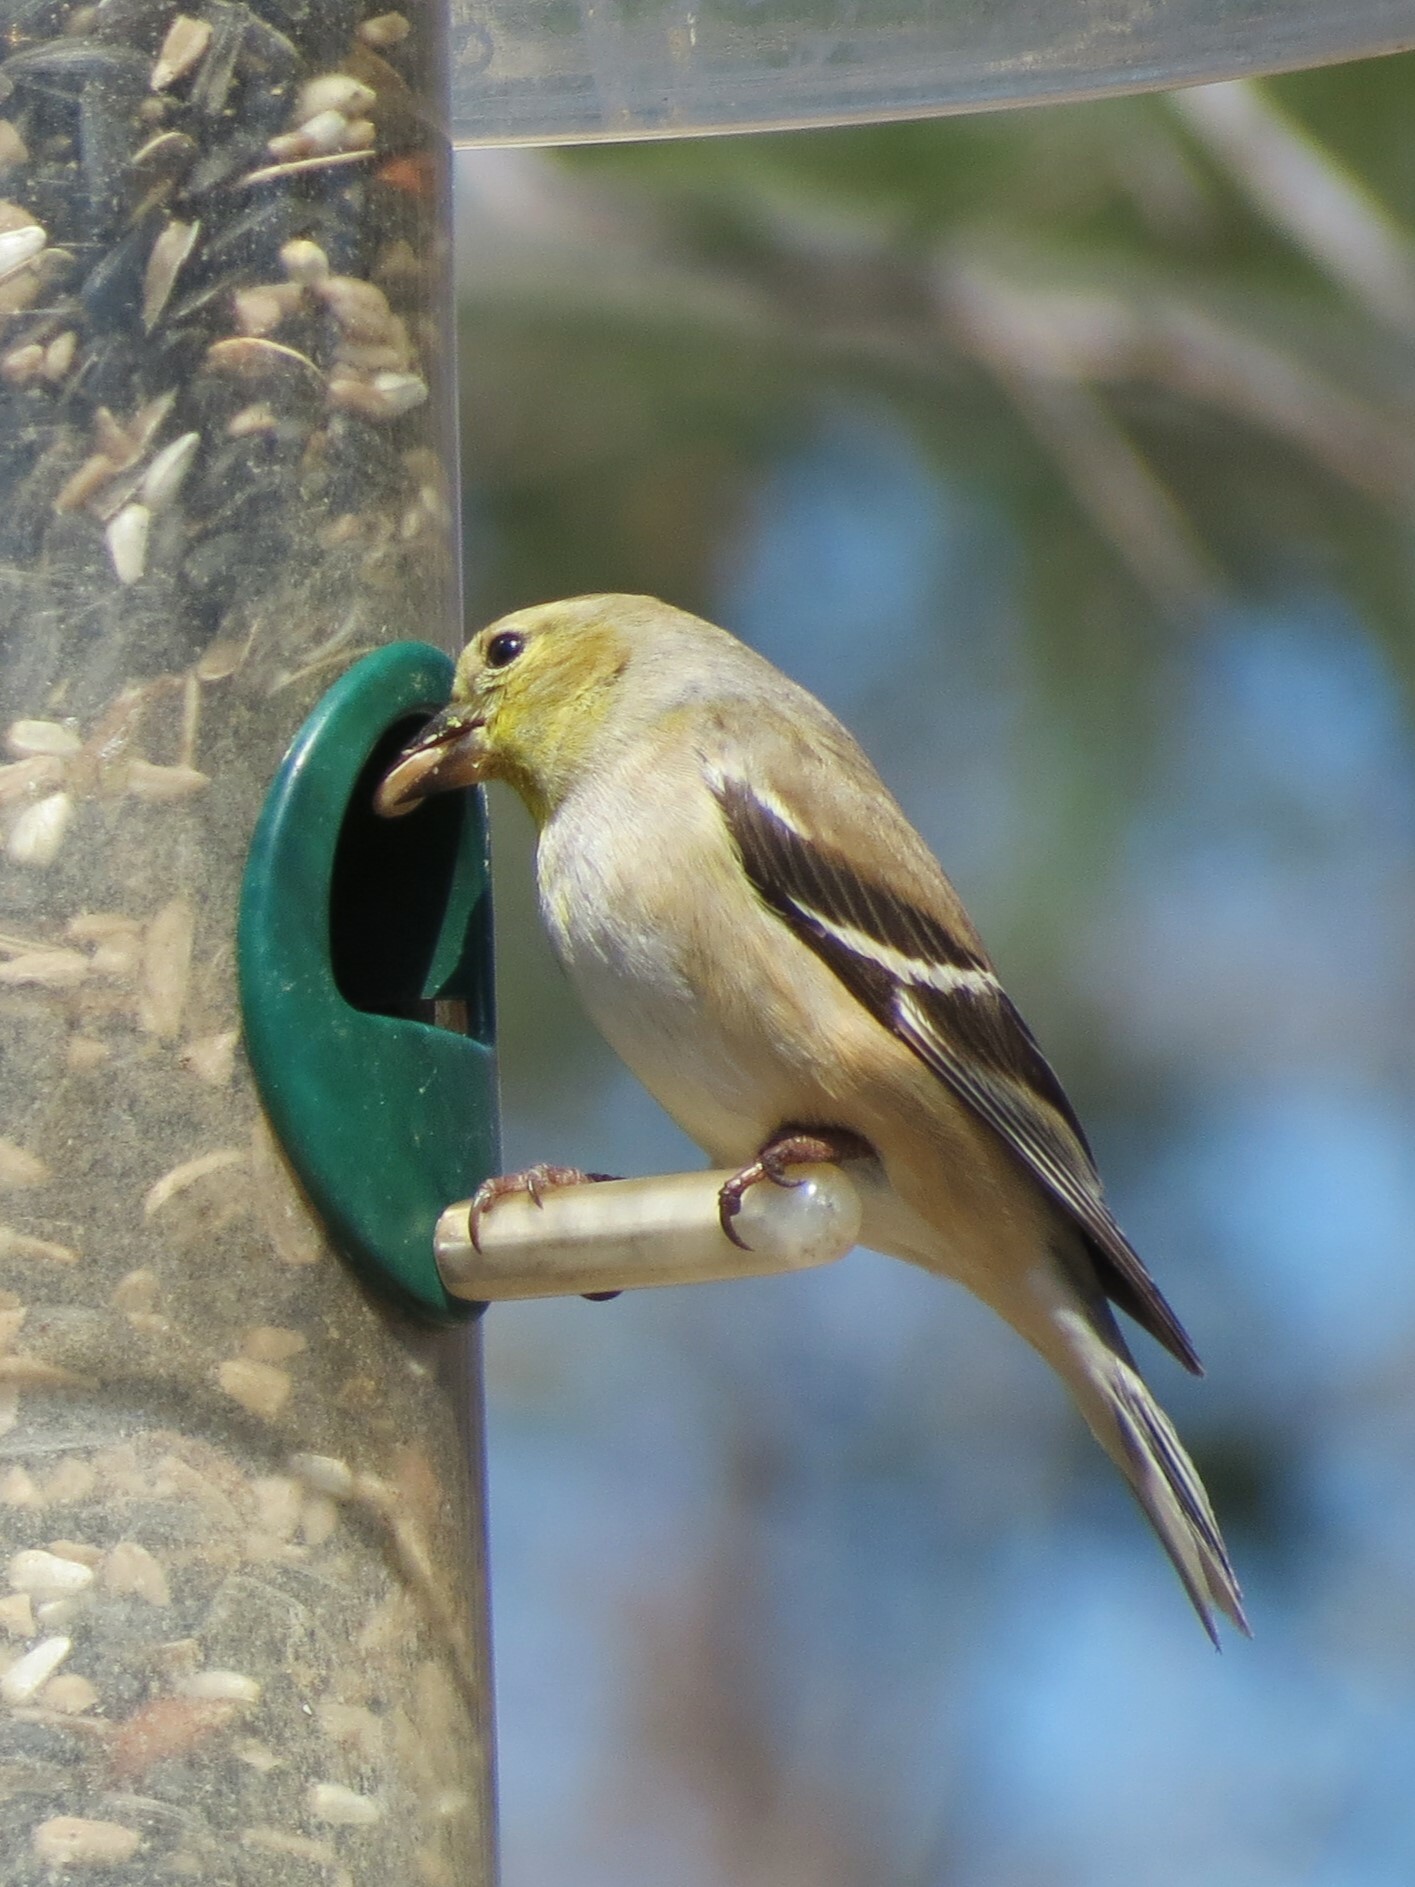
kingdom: Animalia
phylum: Chordata
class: Aves
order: Passeriformes
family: Fringillidae
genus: Spinus
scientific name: Spinus tristis
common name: American goldfinch
